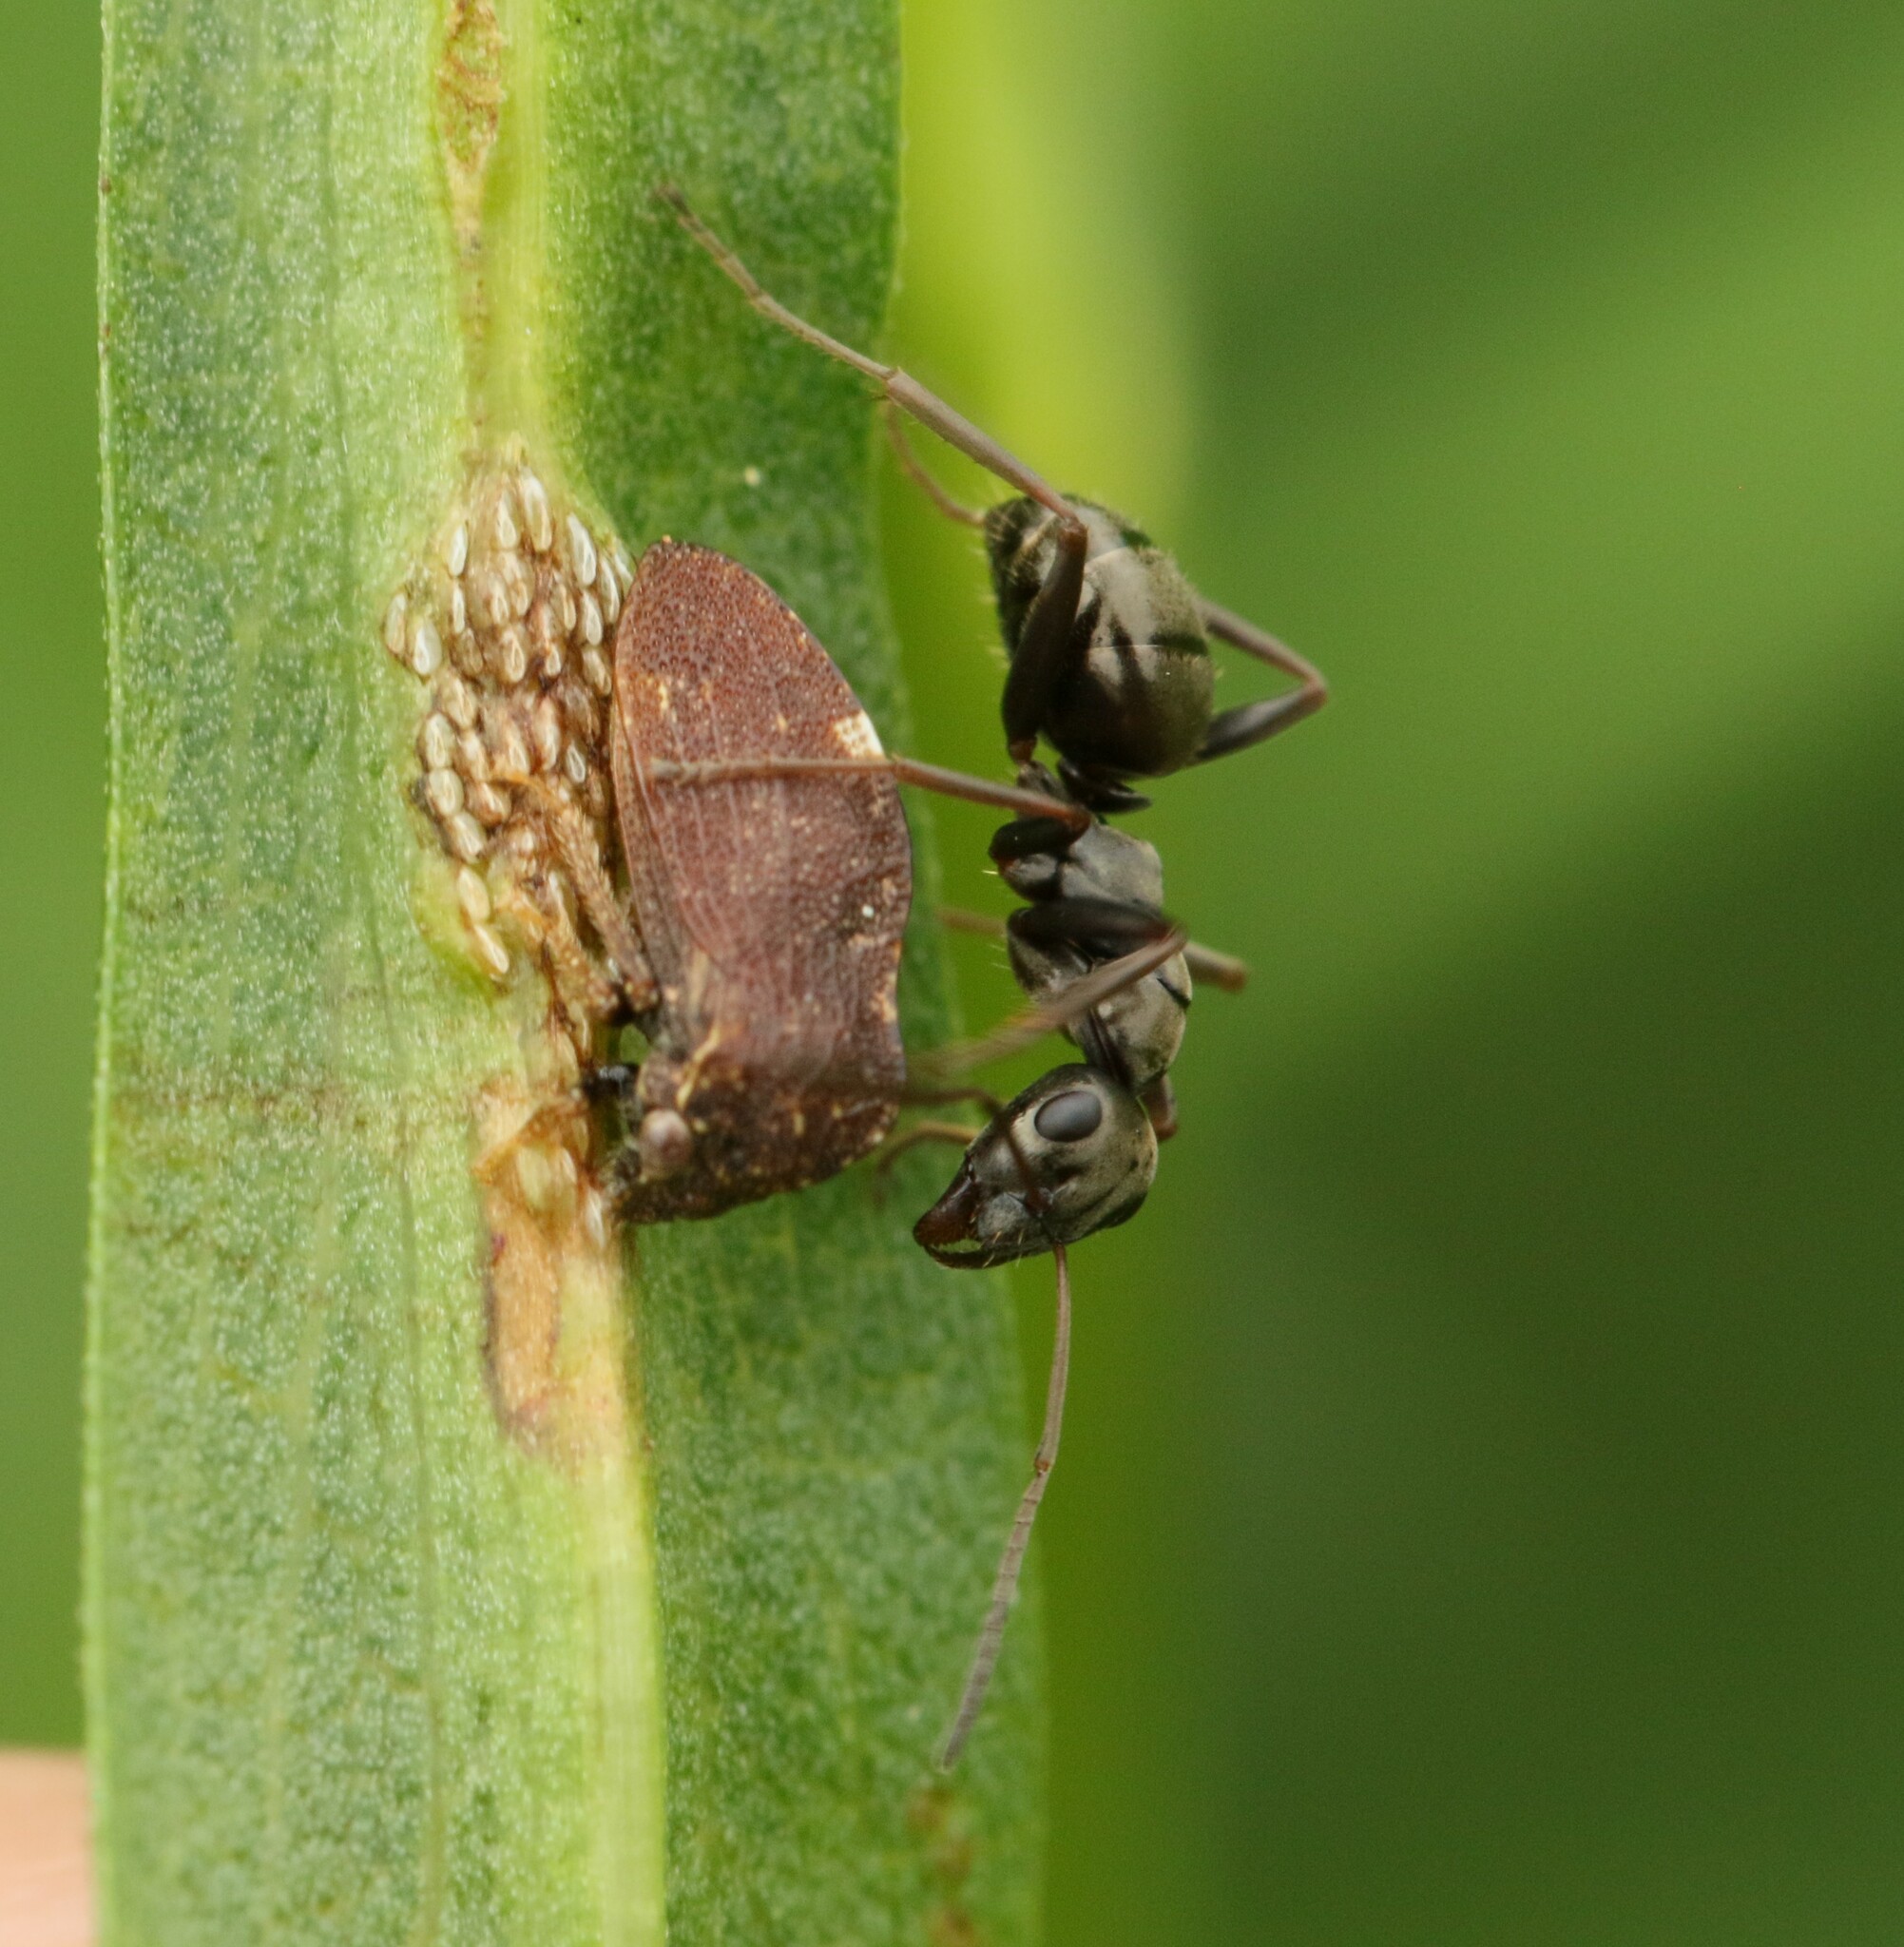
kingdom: Animalia
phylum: Arthropoda
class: Insecta
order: Hemiptera
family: Membracidae
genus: Publilia
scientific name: Publilia concava
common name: Aster treehopper
